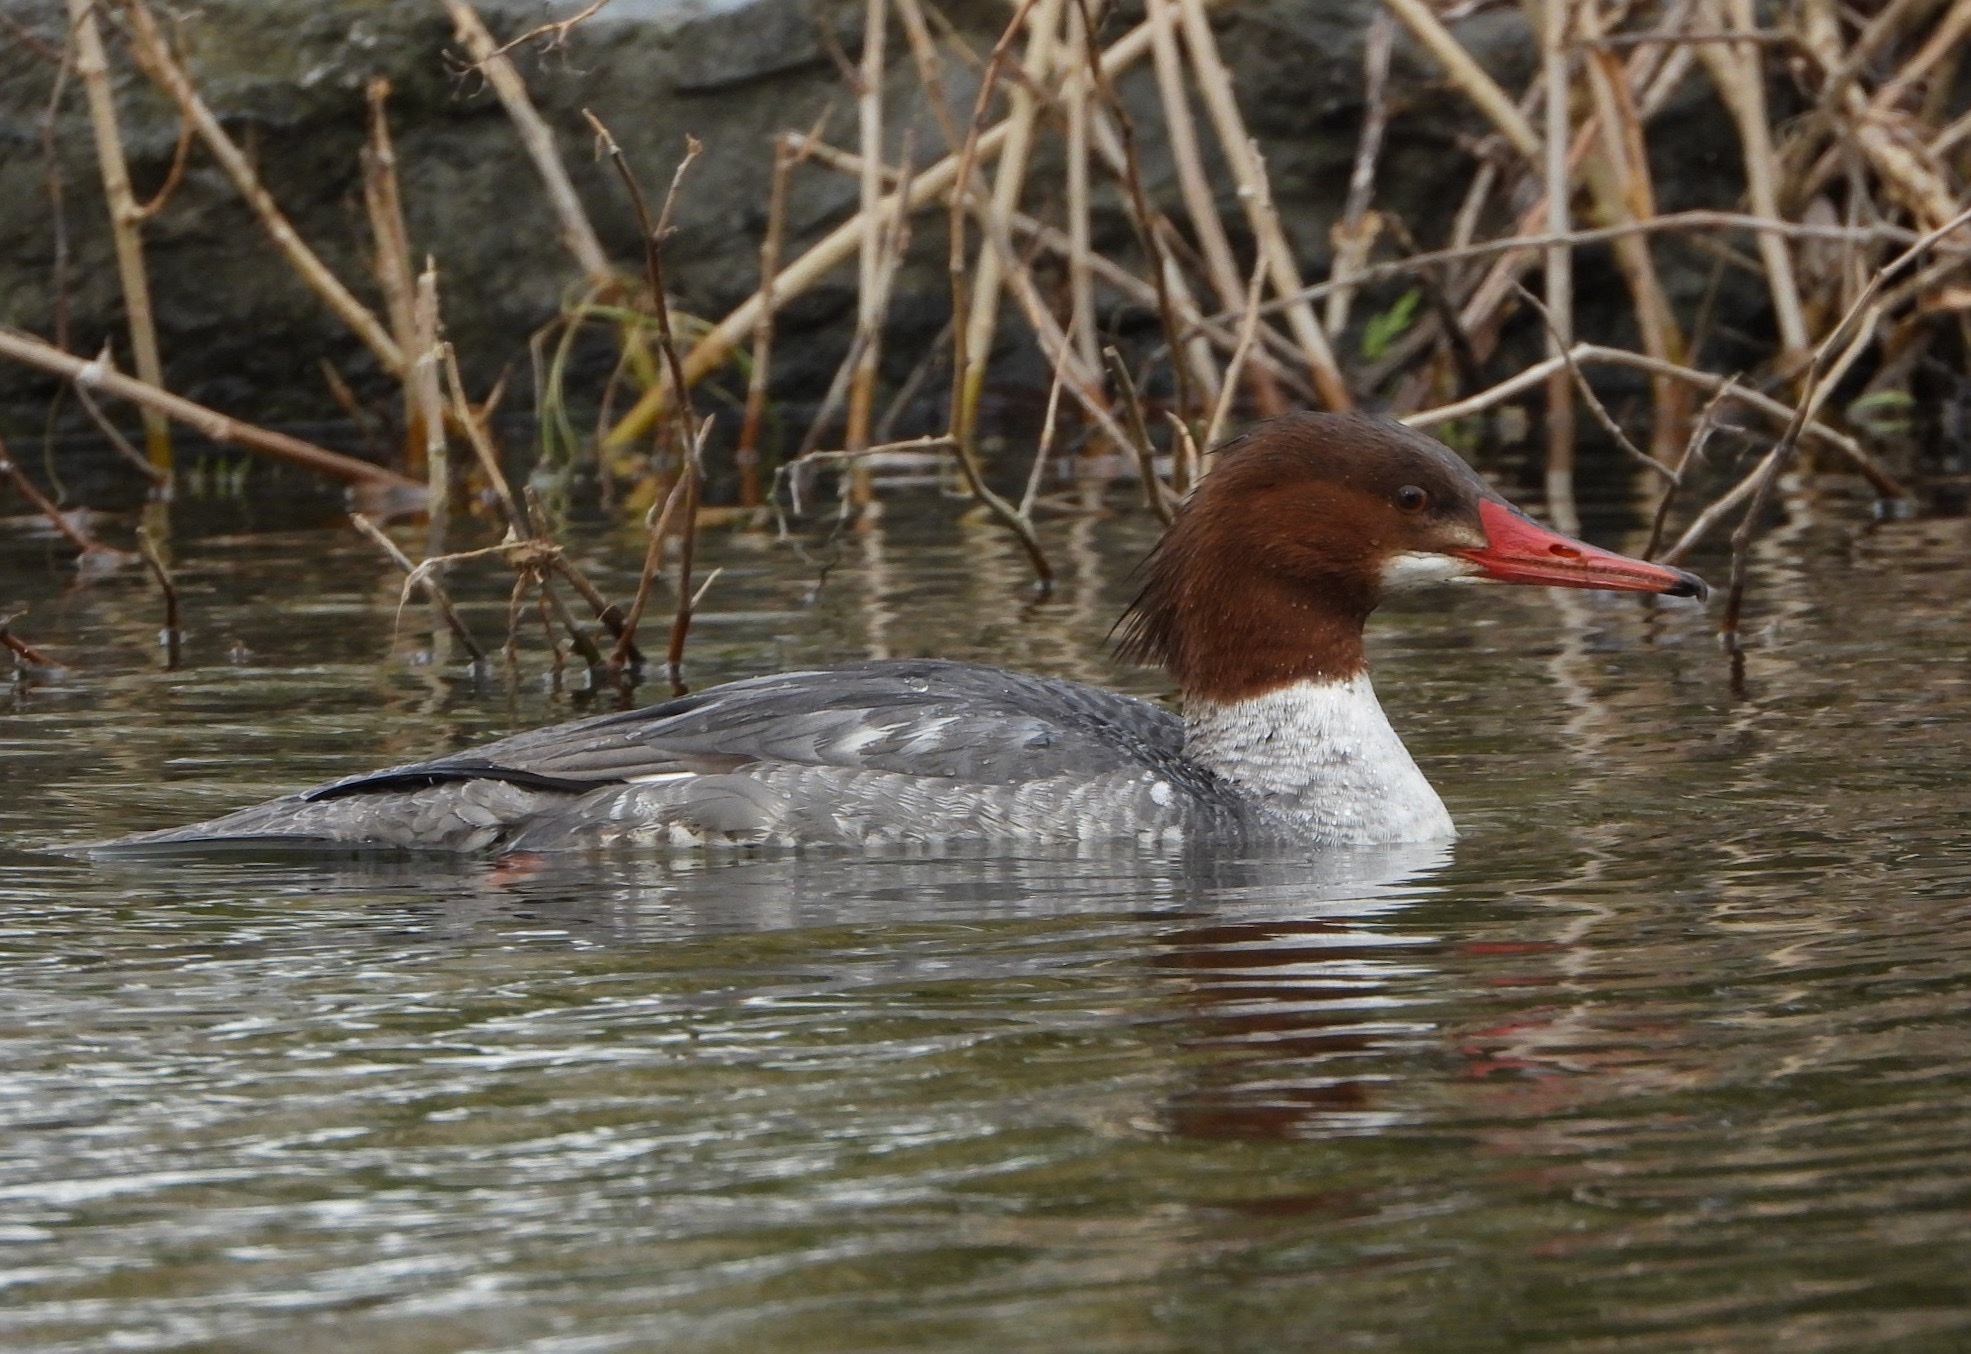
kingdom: Animalia
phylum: Chordata
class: Aves
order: Anseriformes
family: Anatidae
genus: Mergus
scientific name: Mergus merganser
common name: Common merganser
